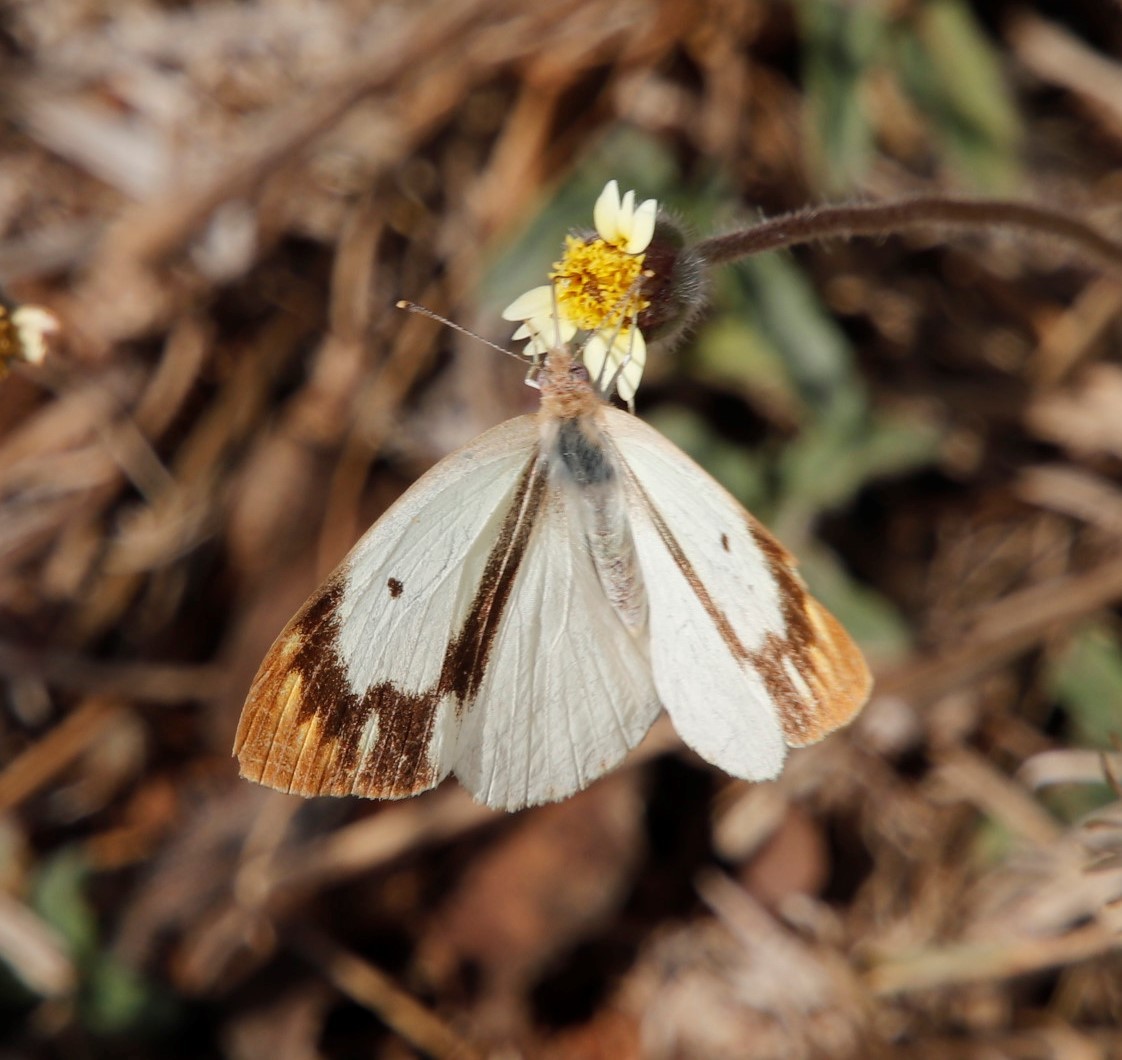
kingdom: Animalia
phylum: Arthropoda
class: Insecta
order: Lepidoptera
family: Pieridae
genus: Colotis
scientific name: Colotis eris
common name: Banded gold tip
